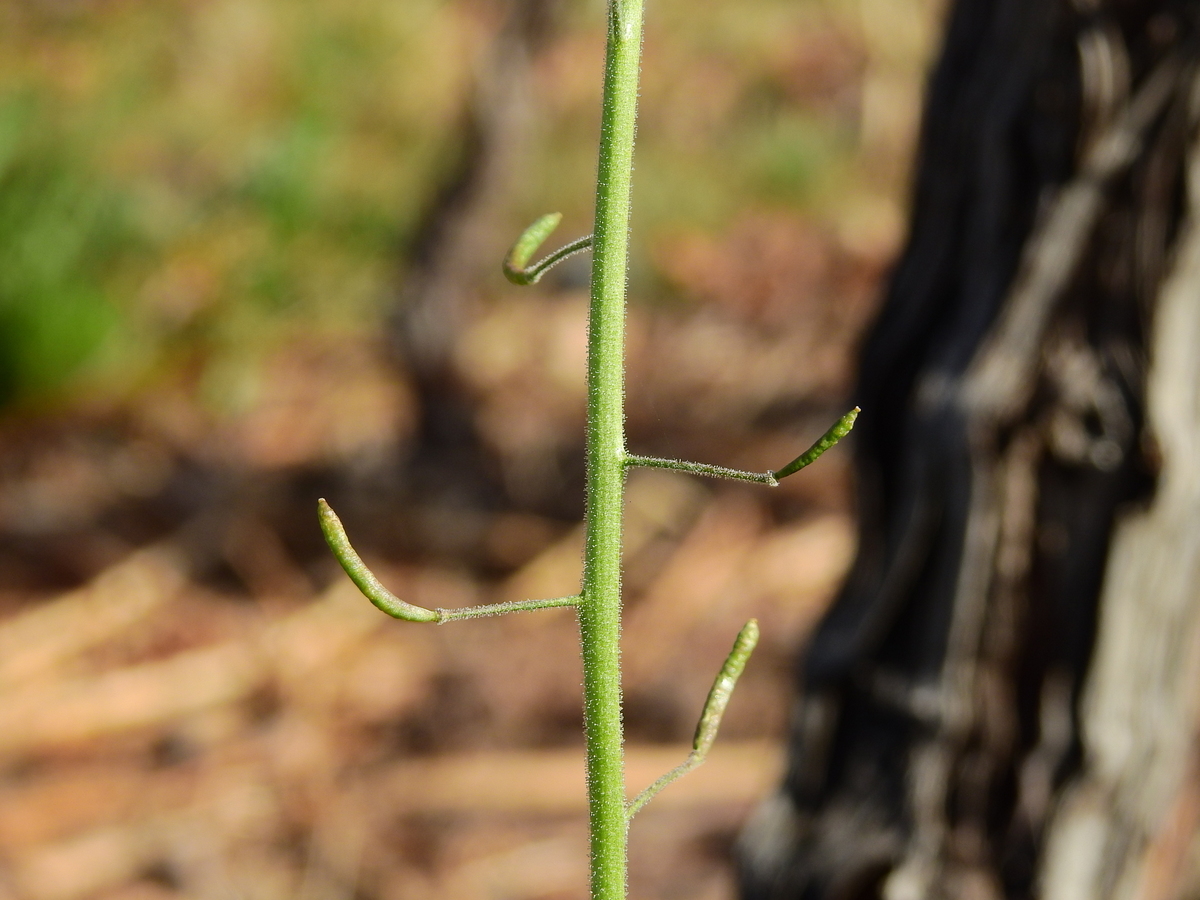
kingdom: Plantae
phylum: Tracheophyta
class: Magnoliopsida
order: Brassicales
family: Brassicaceae
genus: Descurainia
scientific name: Descurainia pimpinellifolia
